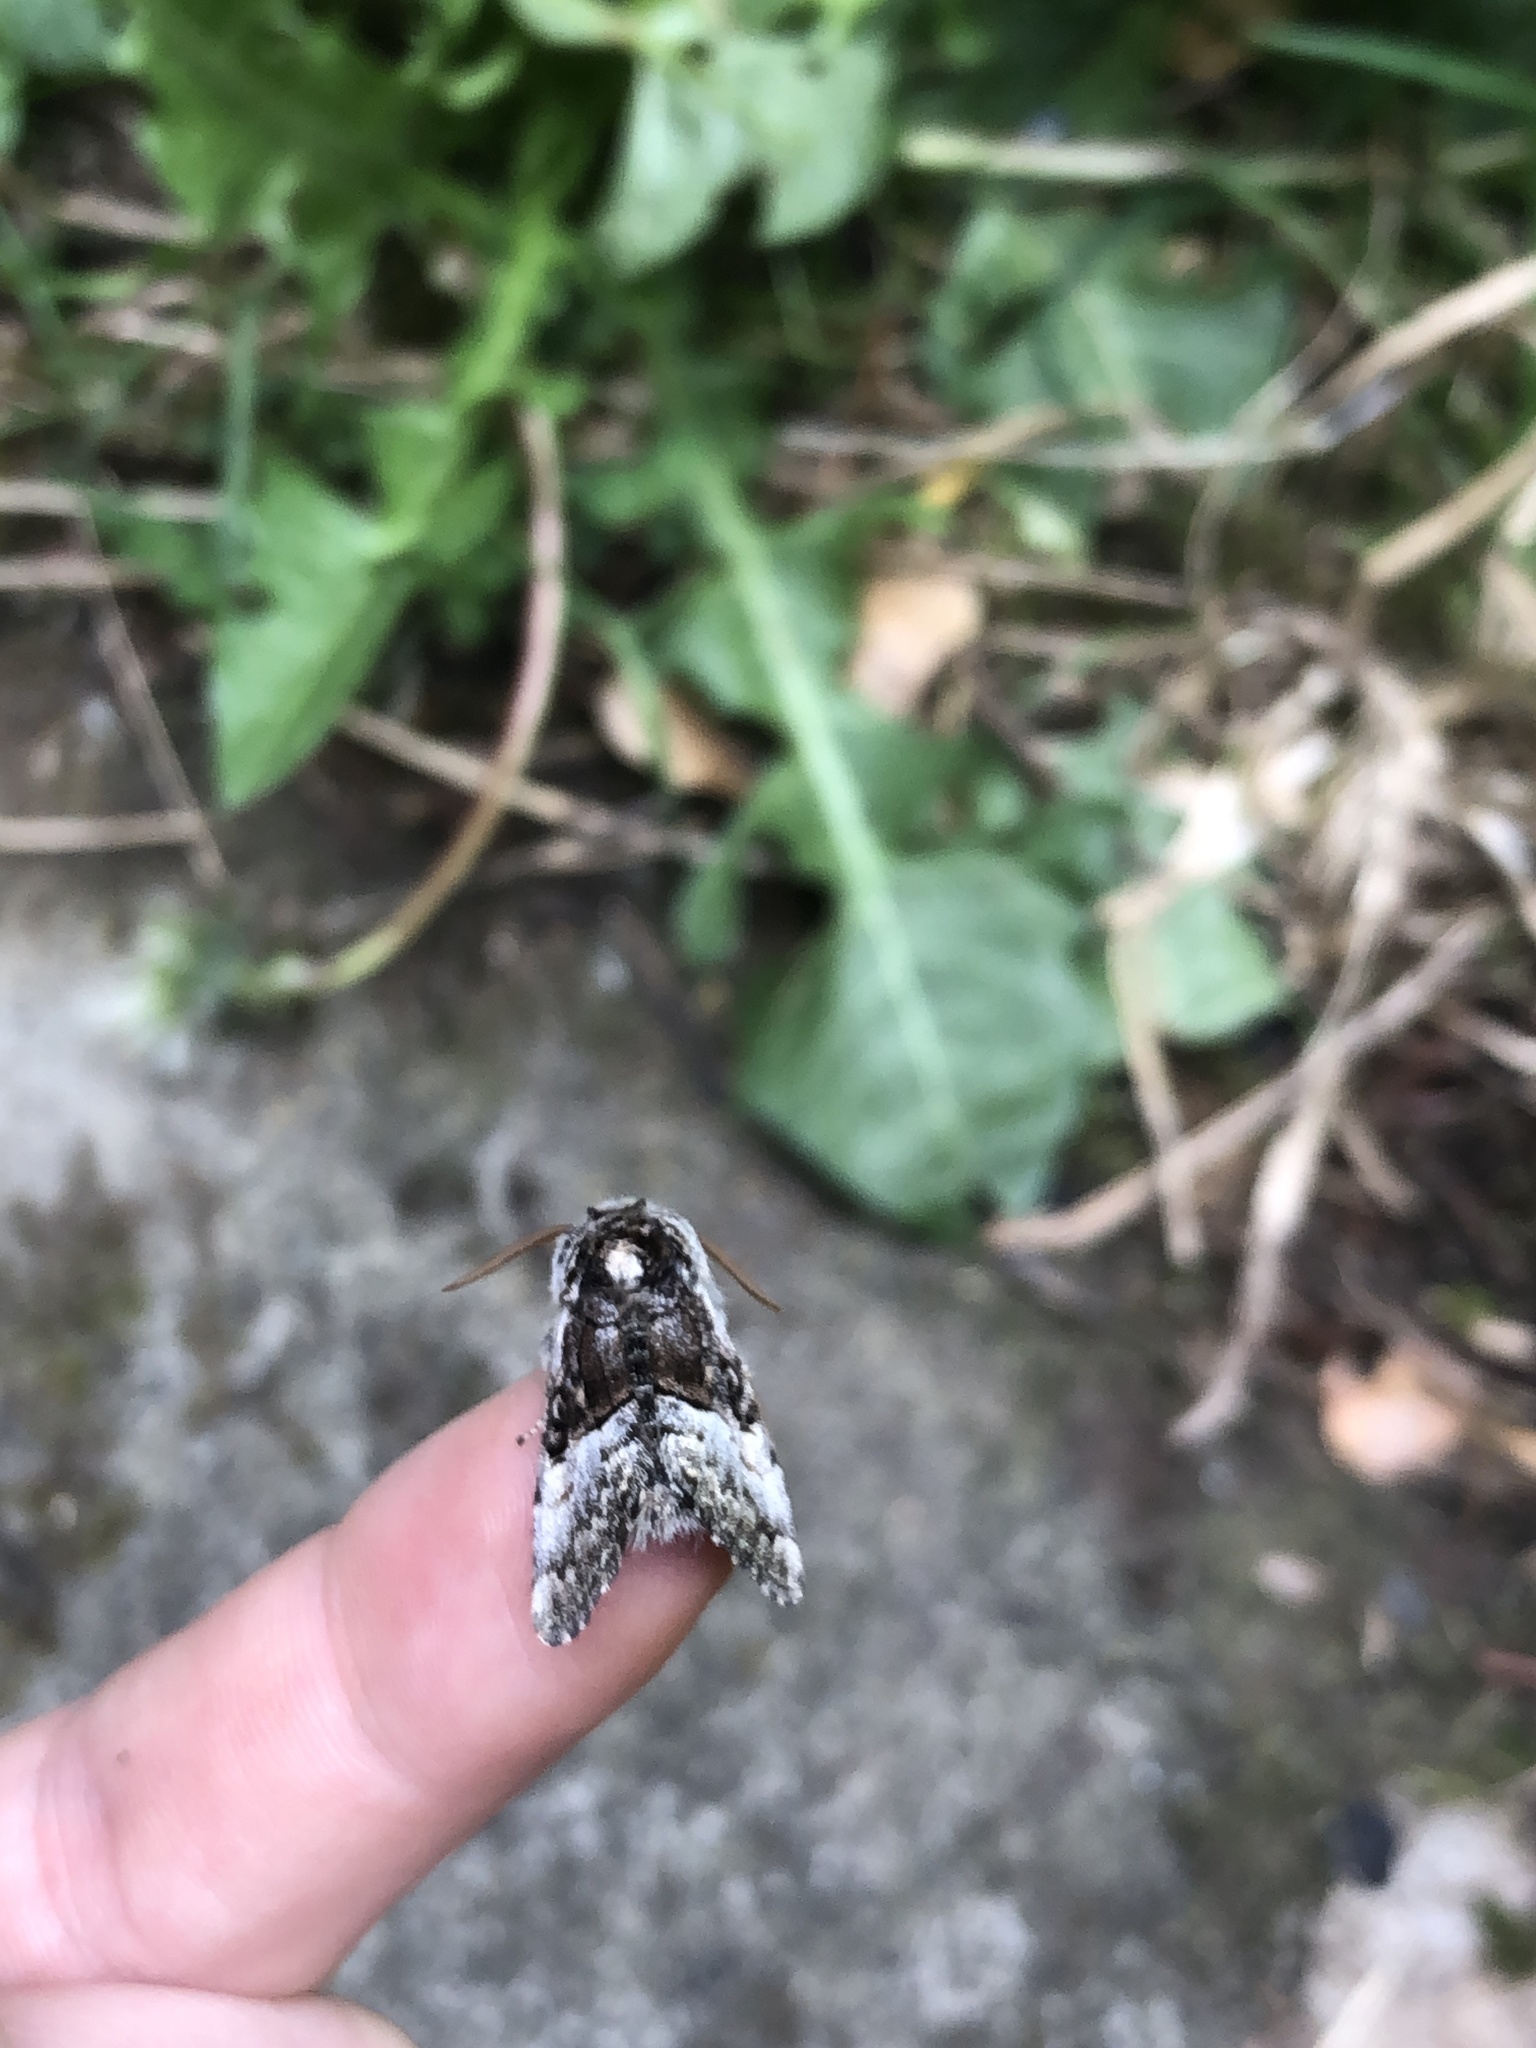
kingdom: Animalia
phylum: Arthropoda
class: Insecta
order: Lepidoptera
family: Noctuidae
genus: Colocasia
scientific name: Colocasia coryli
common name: Nut-tree tussock
